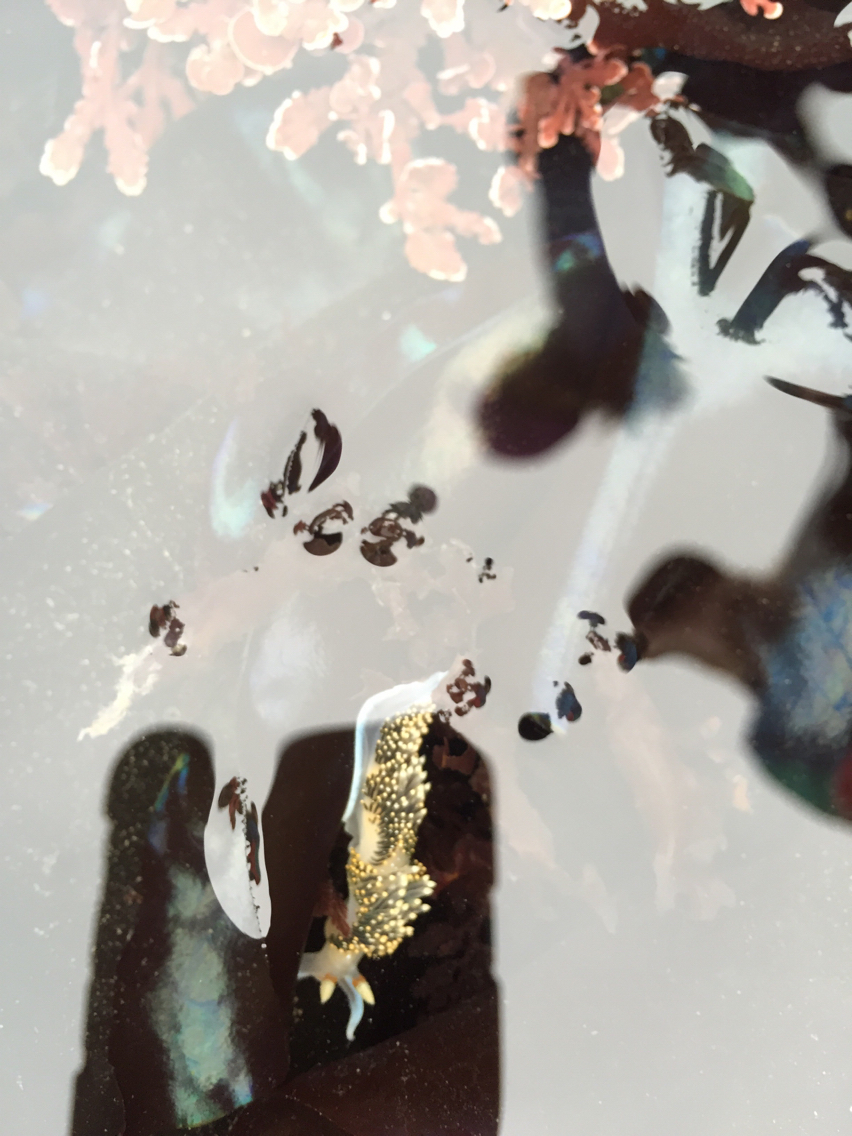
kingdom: Animalia
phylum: Mollusca
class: Gastropoda
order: Nudibranchia
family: Facelinidae
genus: Phidiana
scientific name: Phidiana hiltoni
